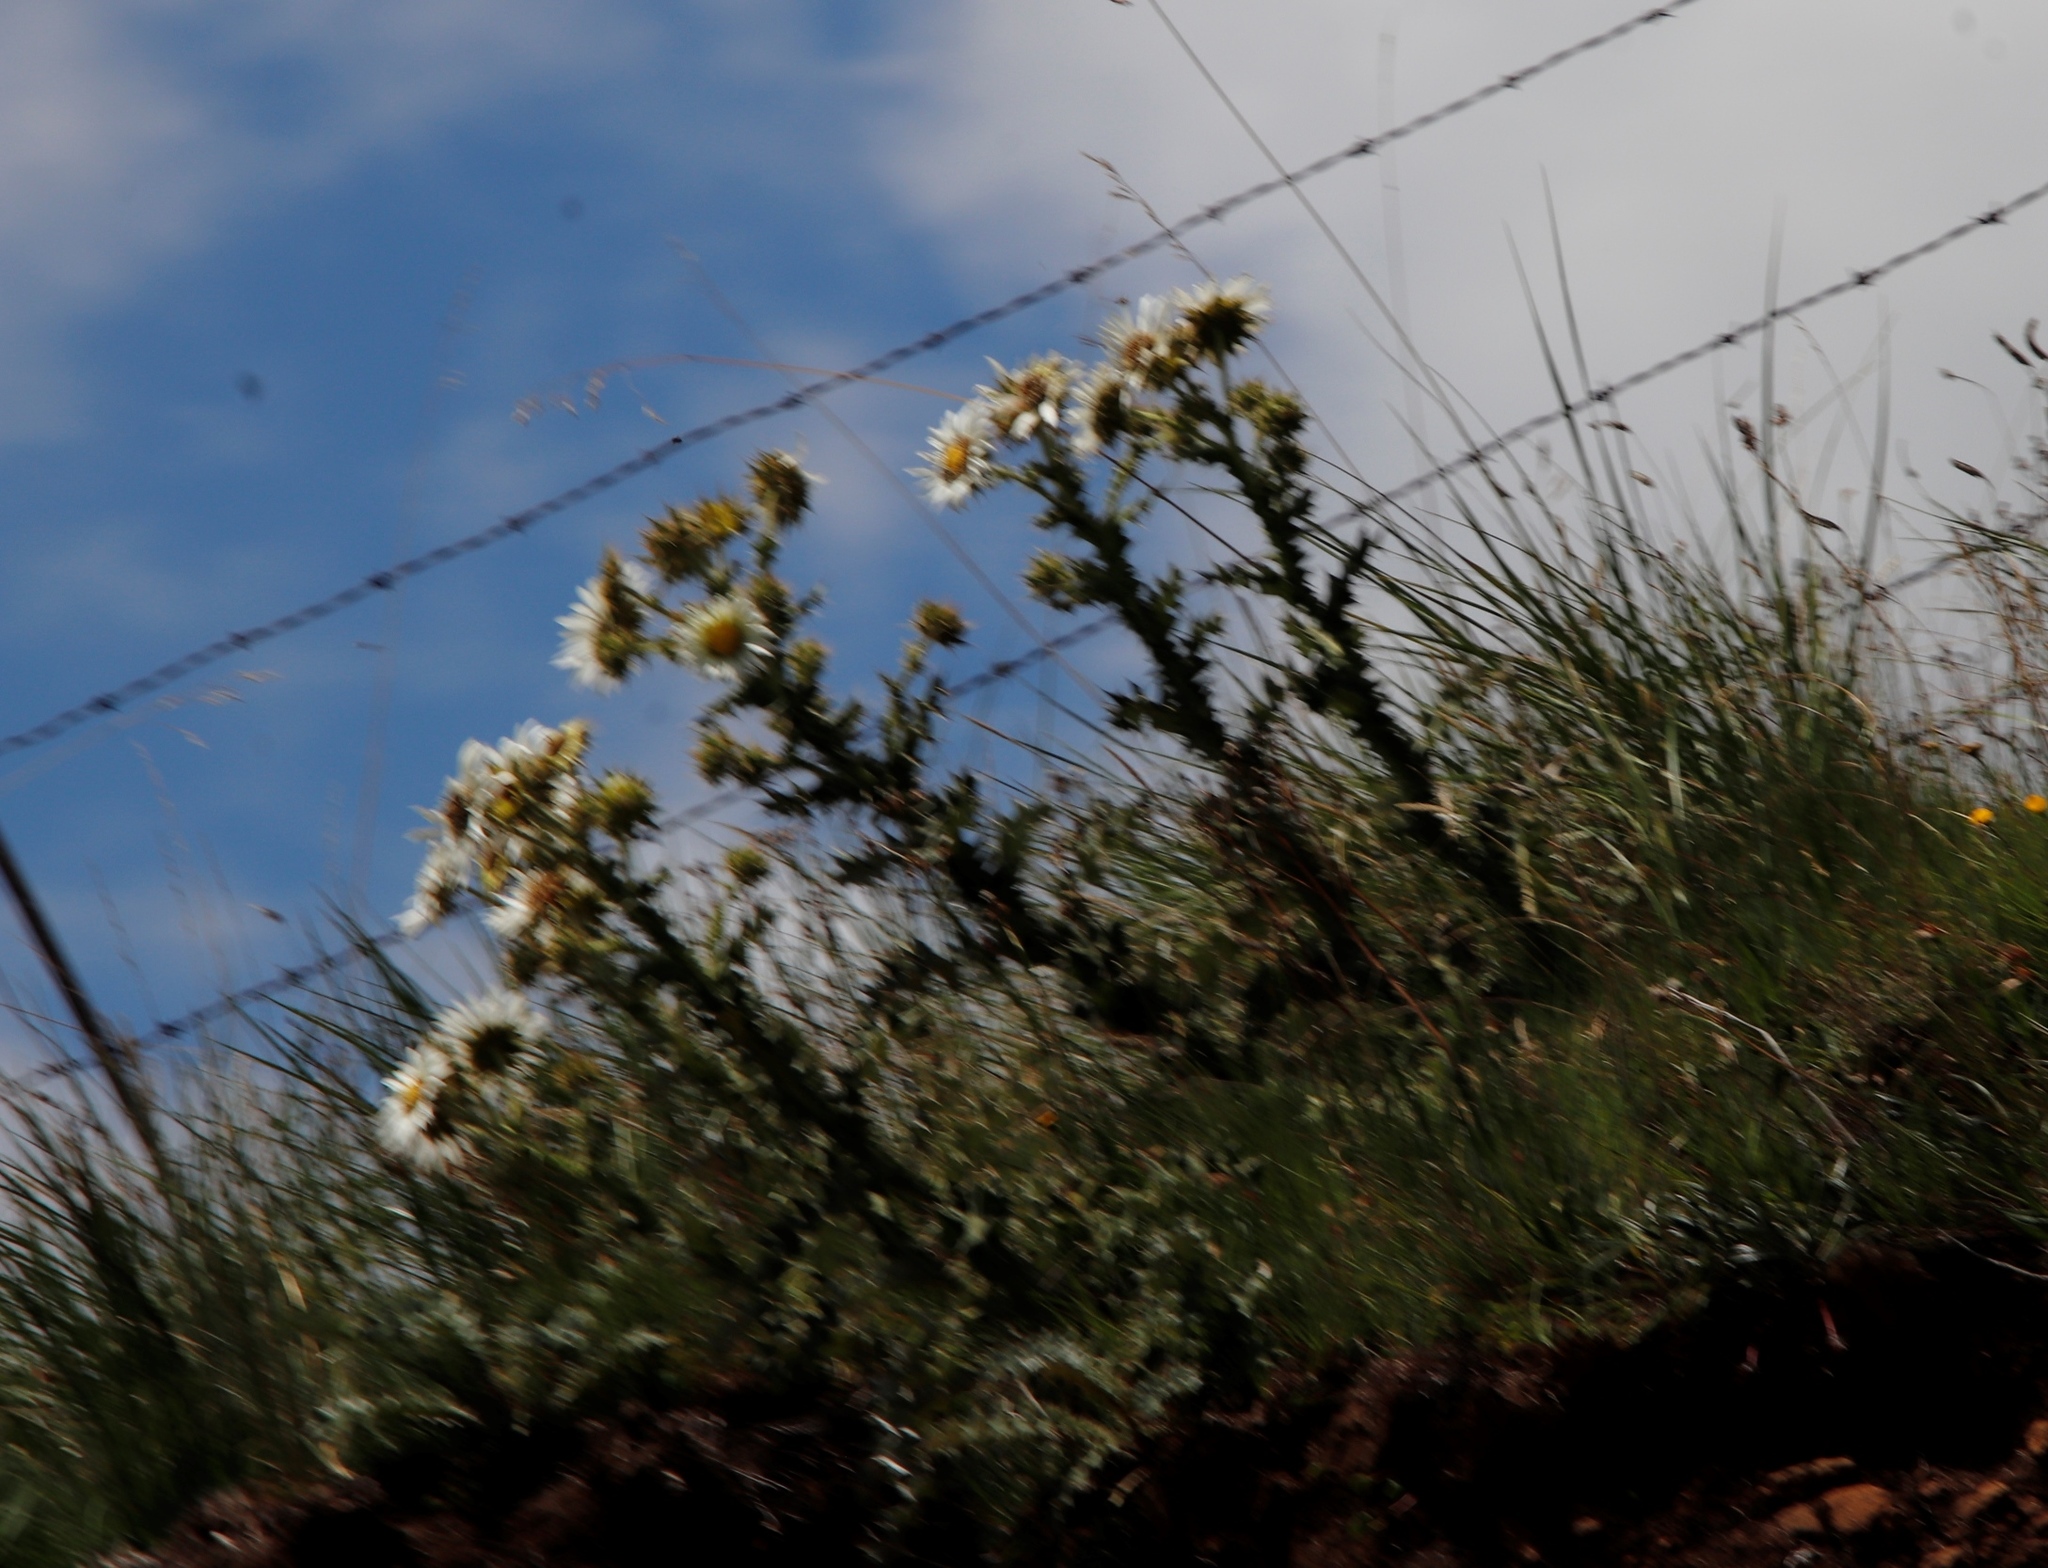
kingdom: Plantae
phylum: Tracheophyta
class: Magnoliopsida
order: Asterales
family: Asteraceae
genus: Berkheya
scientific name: Berkheya cirsiifolia
